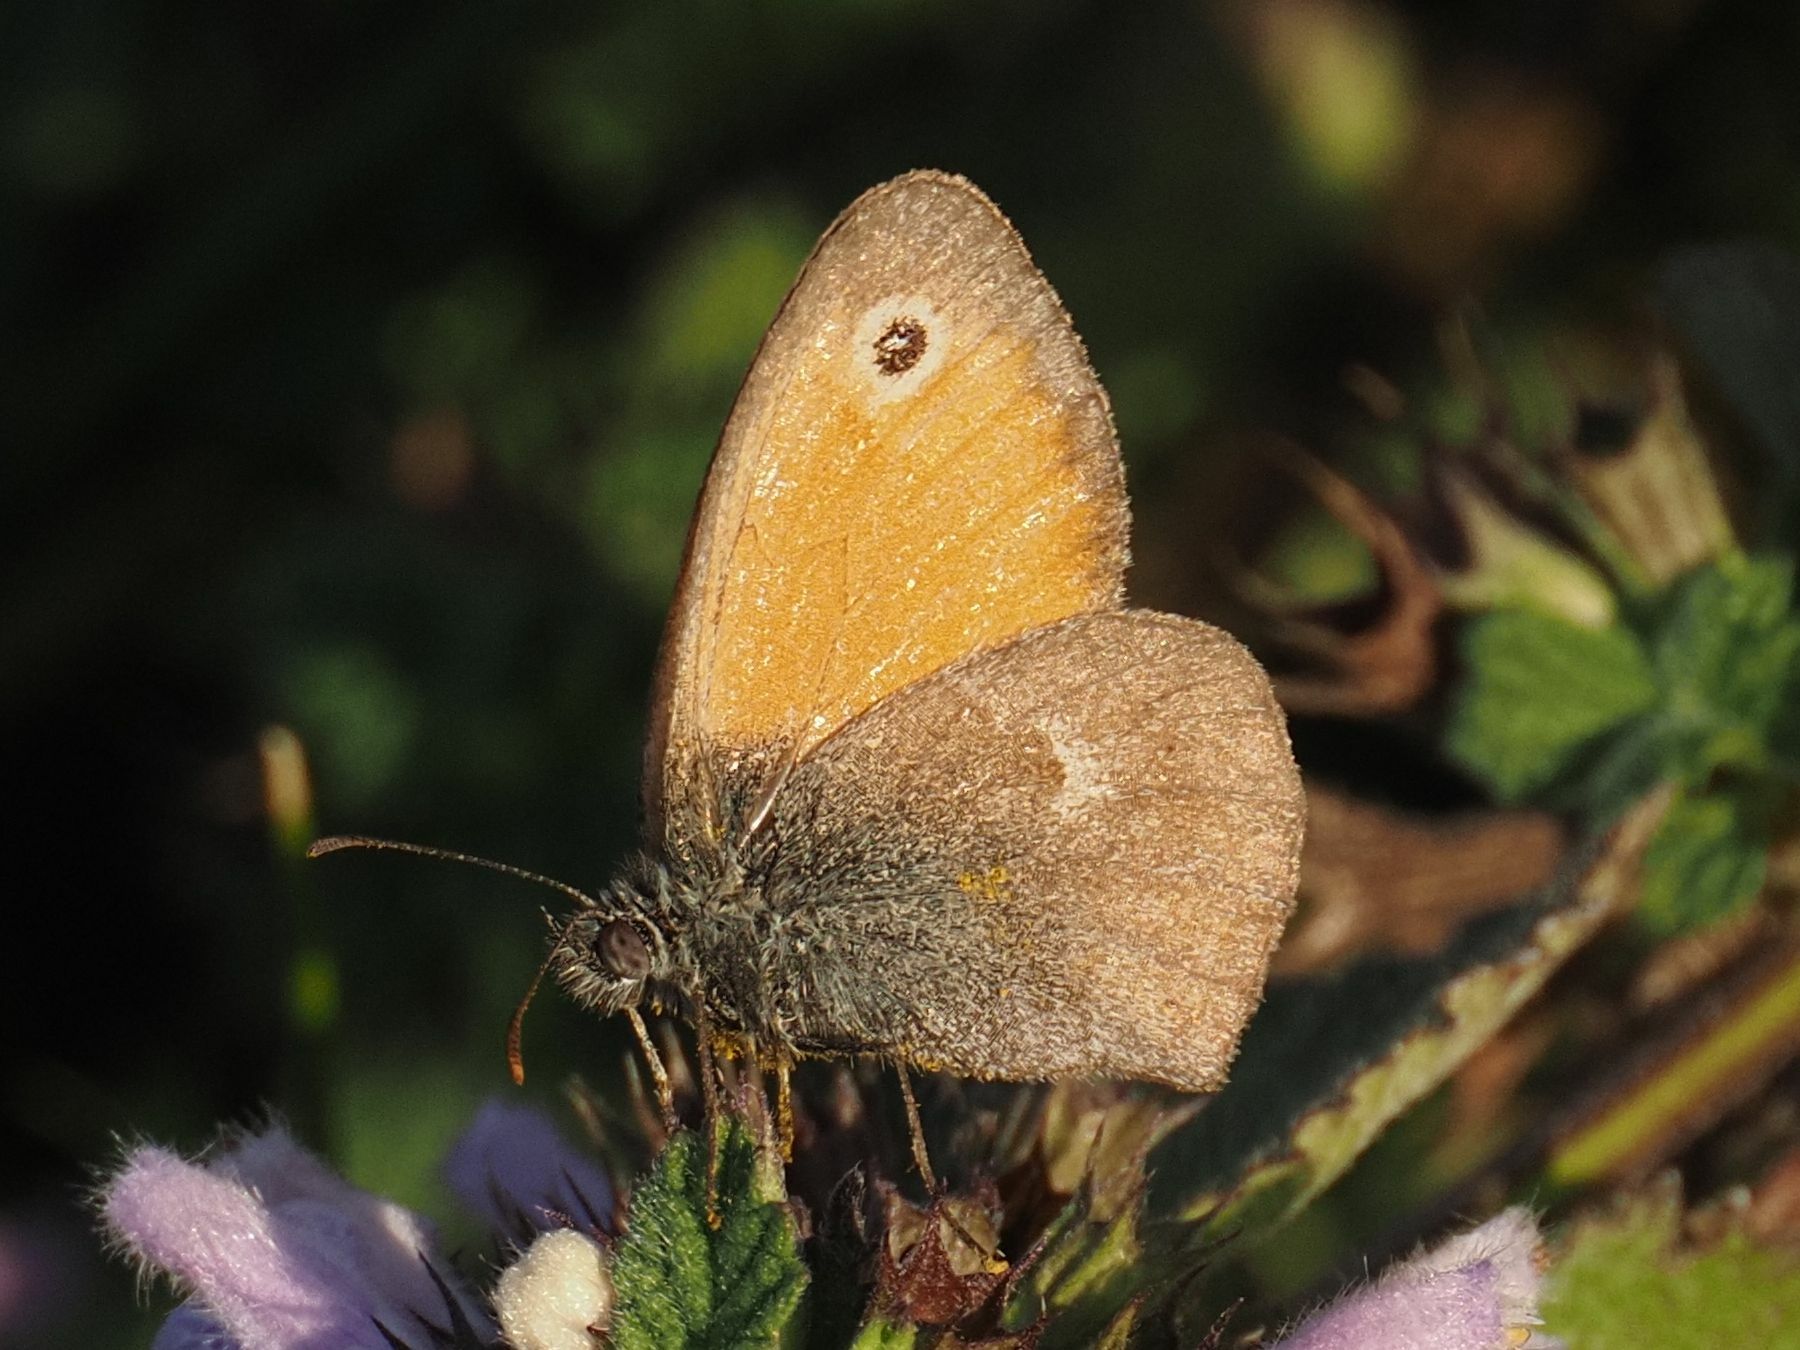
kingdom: Animalia
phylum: Arthropoda
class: Insecta
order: Lepidoptera
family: Nymphalidae
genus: Coenonympha
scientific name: Coenonympha pamphilus
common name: Small heath
